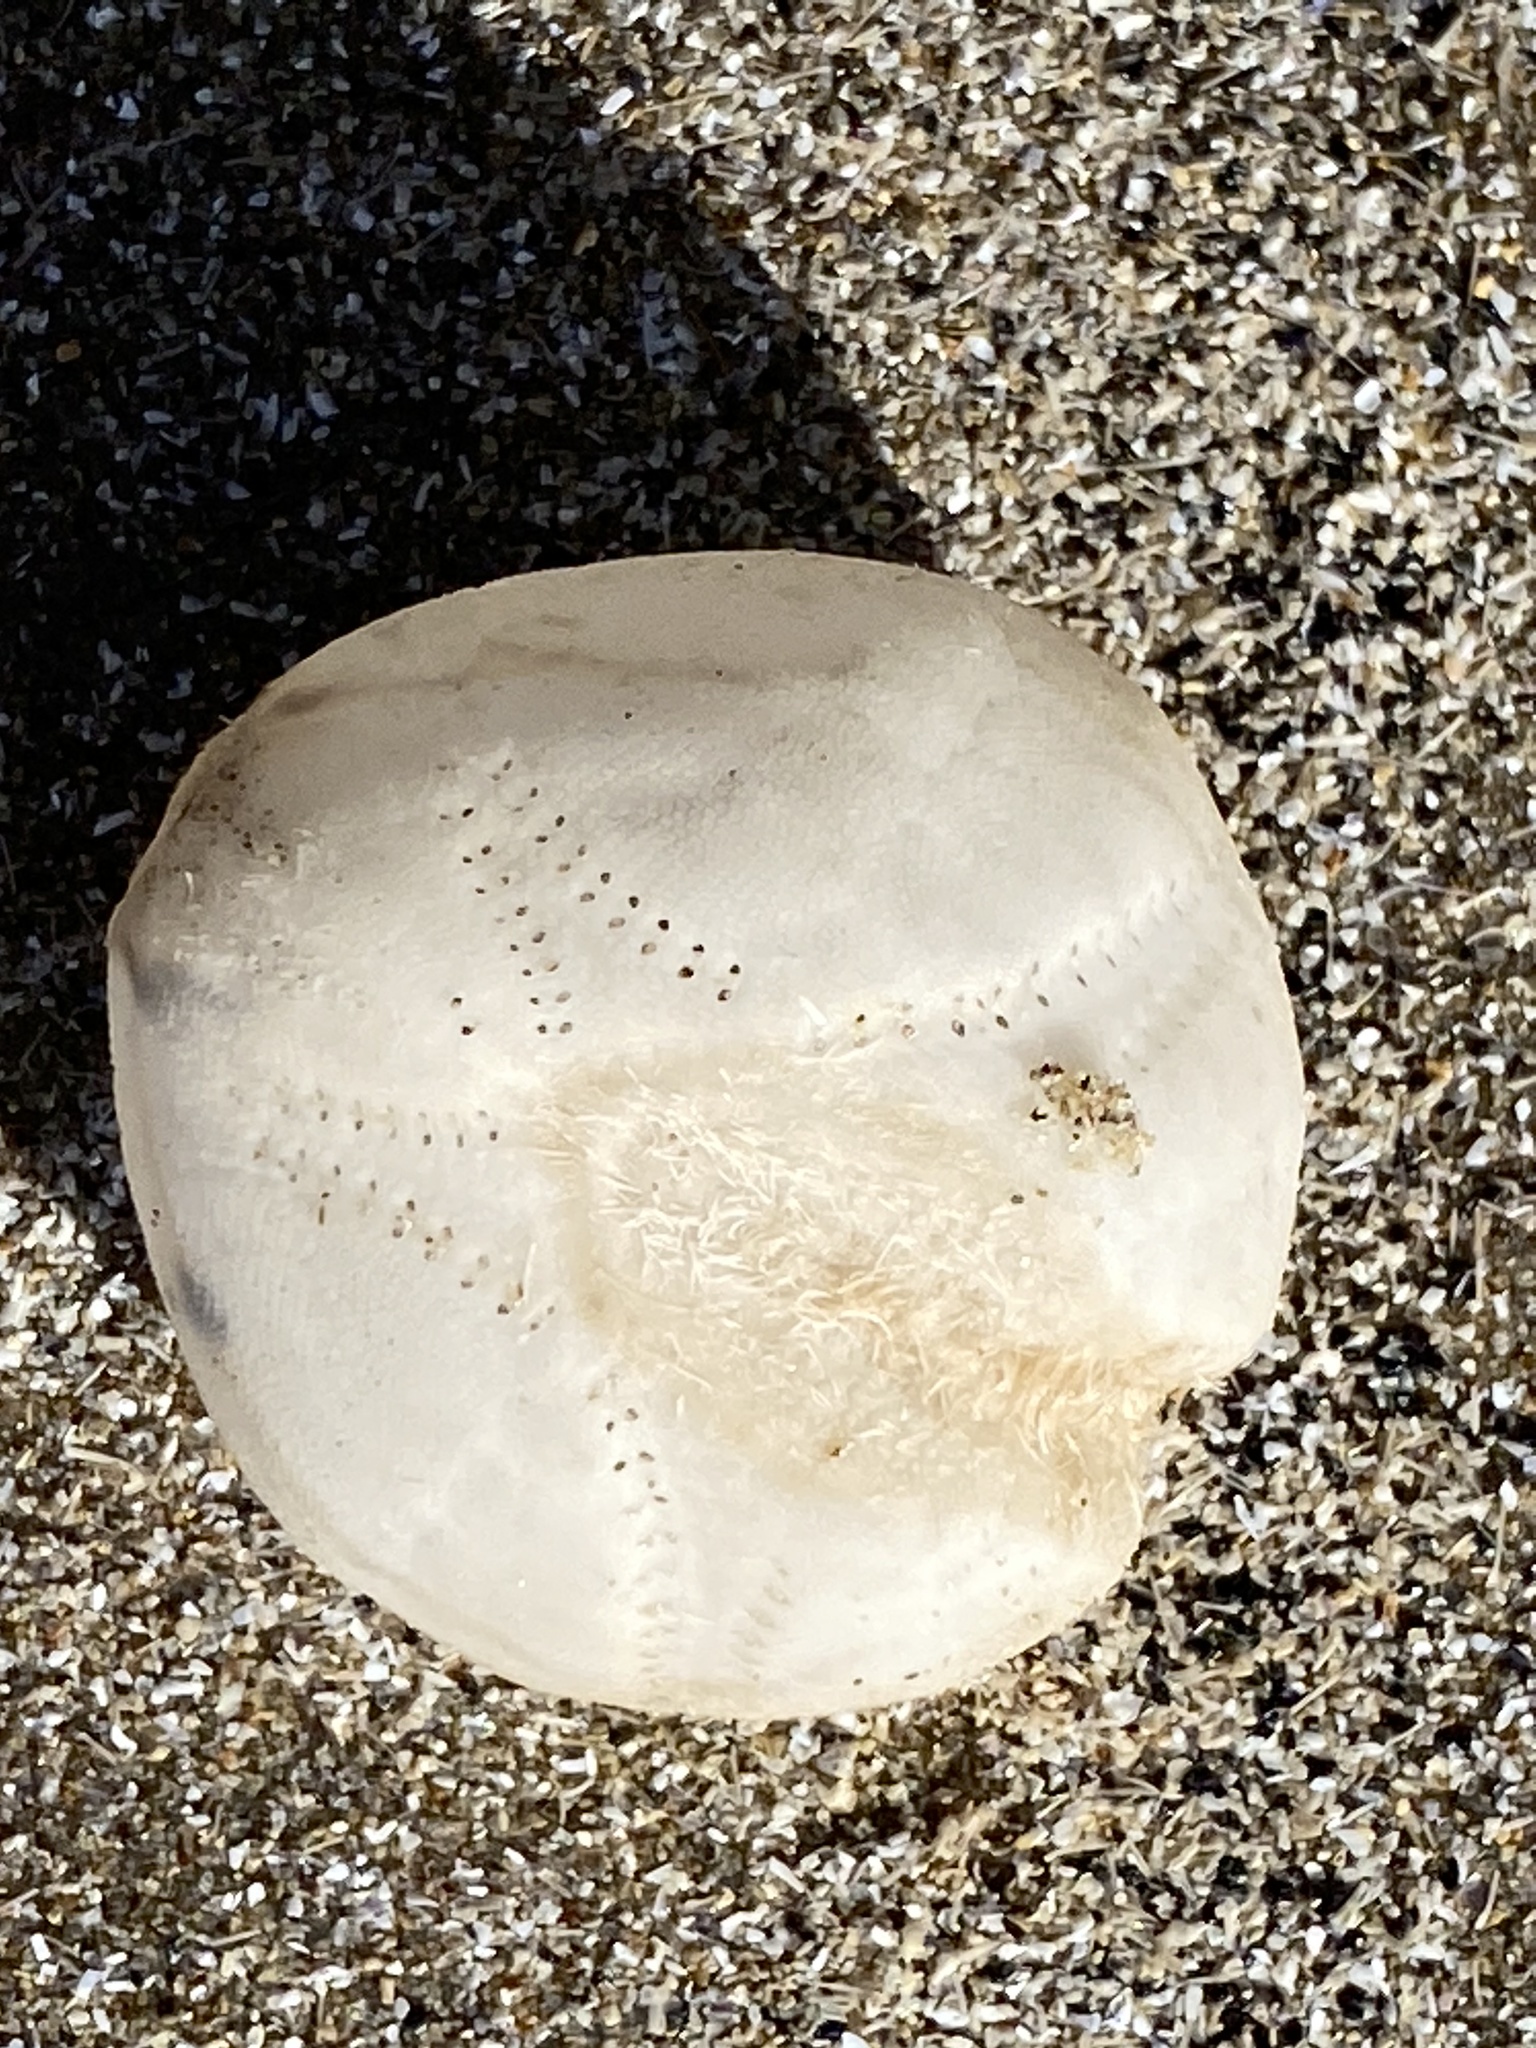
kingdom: Animalia
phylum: Echinodermata
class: Echinoidea
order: Spatangoida
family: Loveniidae
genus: Echinocardium
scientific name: Echinocardium cordatum
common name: Heart-urchin
